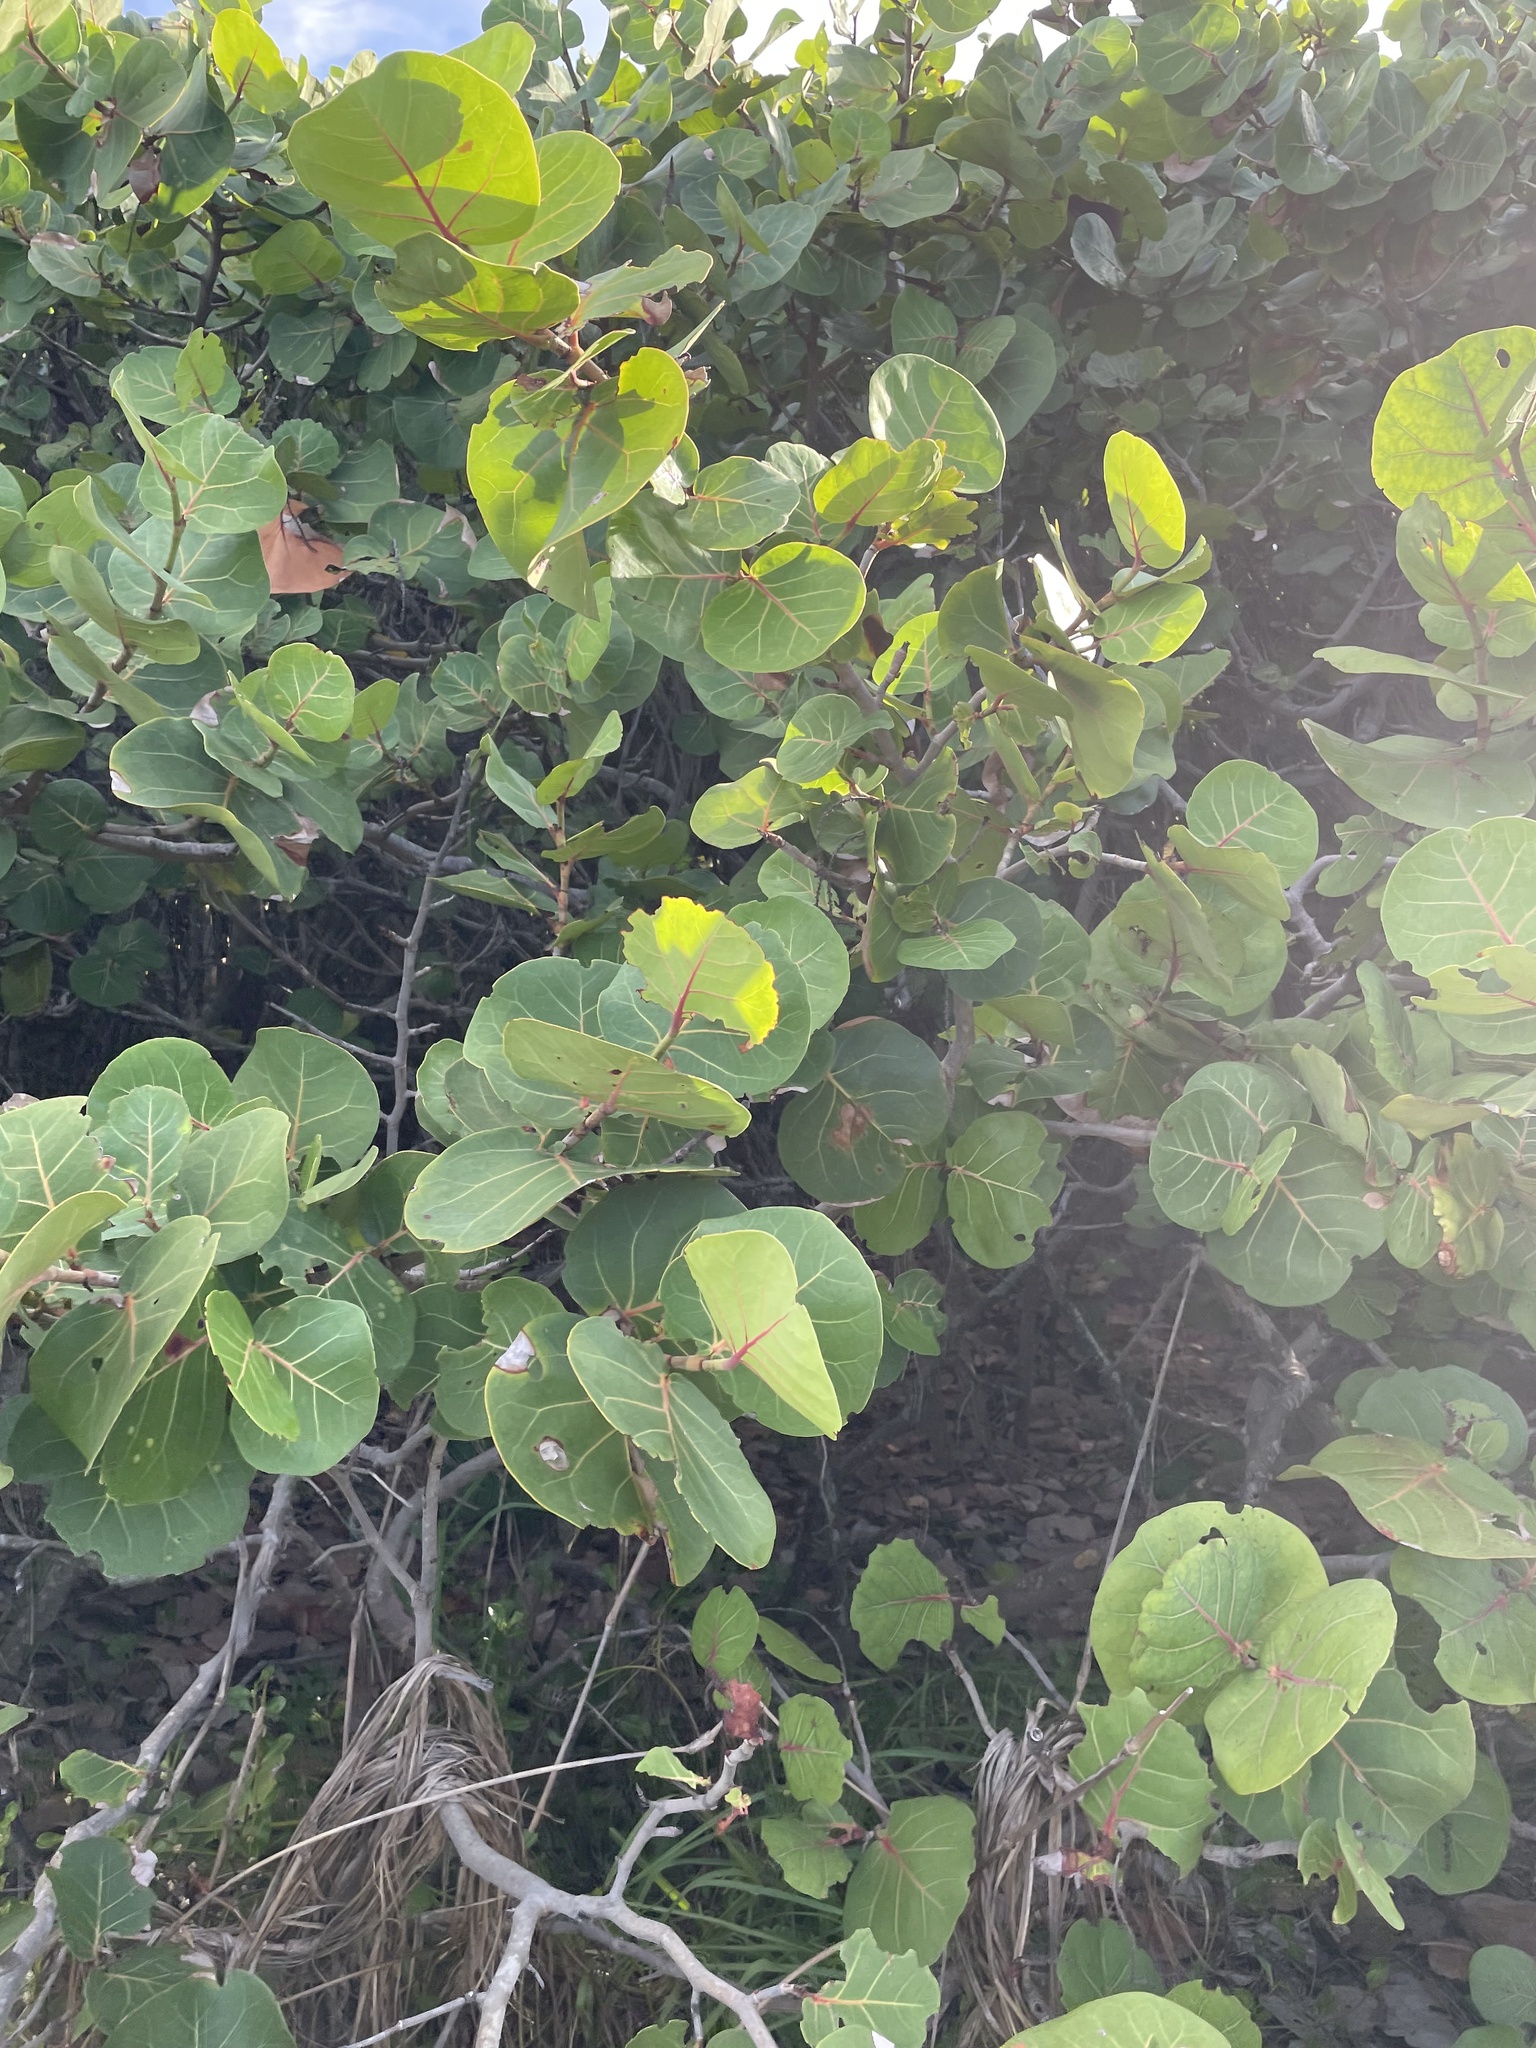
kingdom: Plantae
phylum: Tracheophyta
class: Magnoliopsida
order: Caryophyllales
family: Polygonaceae
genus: Coccoloba
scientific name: Coccoloba uvifera
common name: Seagrape
